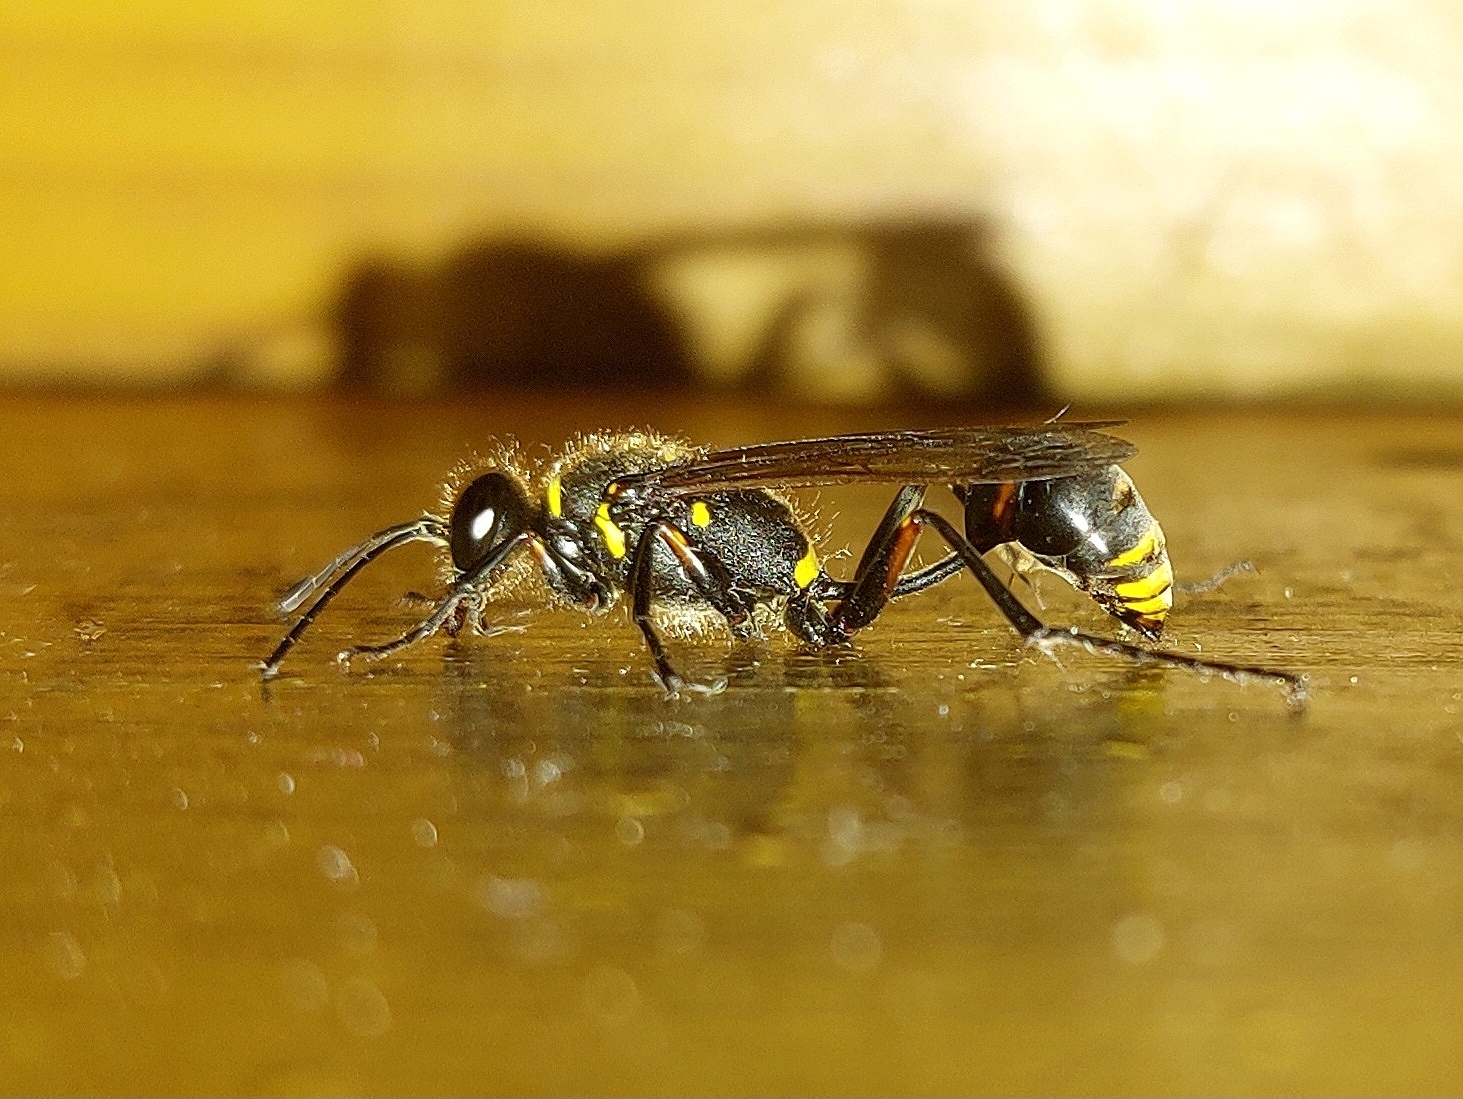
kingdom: Animalia
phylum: Arthropoda
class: Insecta
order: Hymenoptera
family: Sphecidae
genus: Sceliphron
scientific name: Sceliphron
